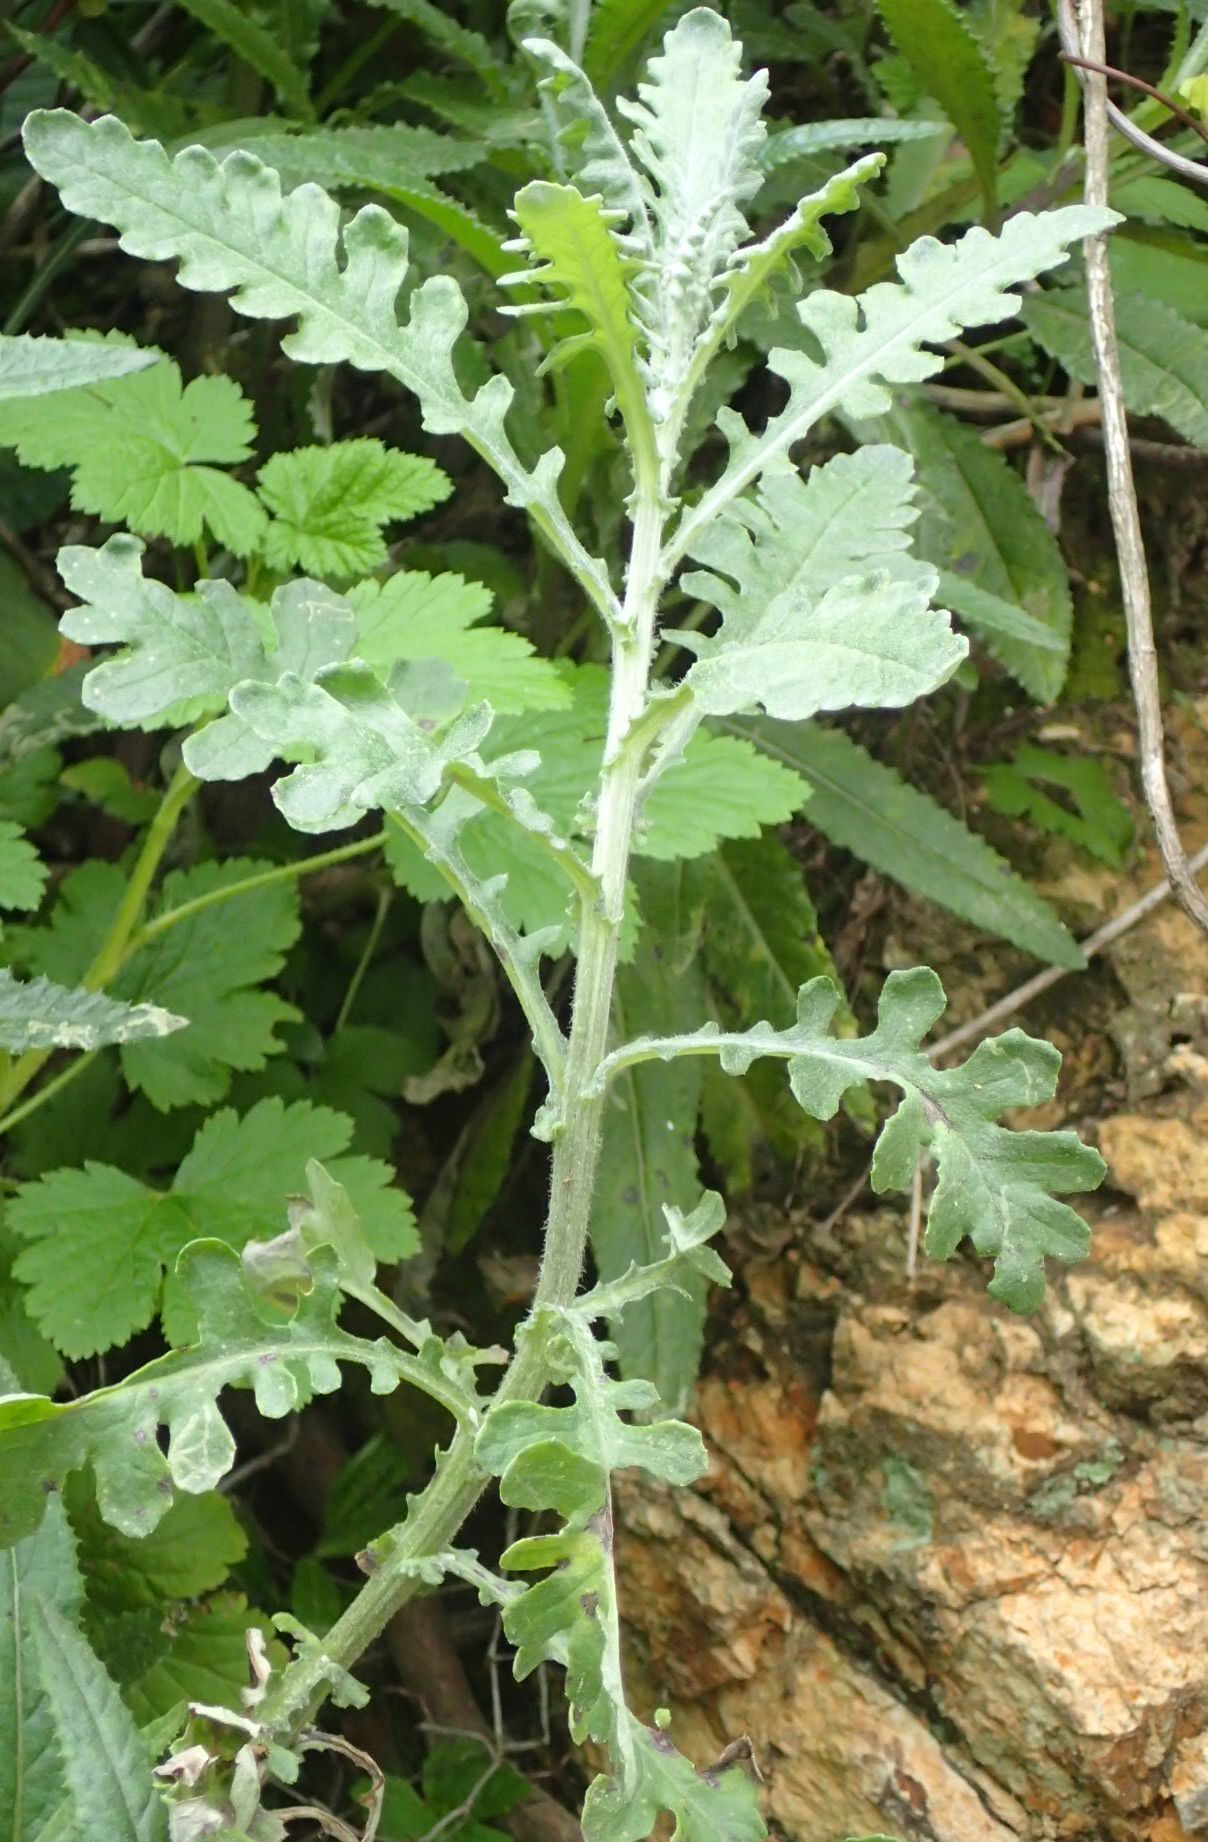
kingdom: Plantae
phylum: Tracheophyta
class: Magnoliopsida
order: Asterales
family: Asteraceae
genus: Senecio
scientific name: Senecio glomeratus
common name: Cutleaf burnweed
